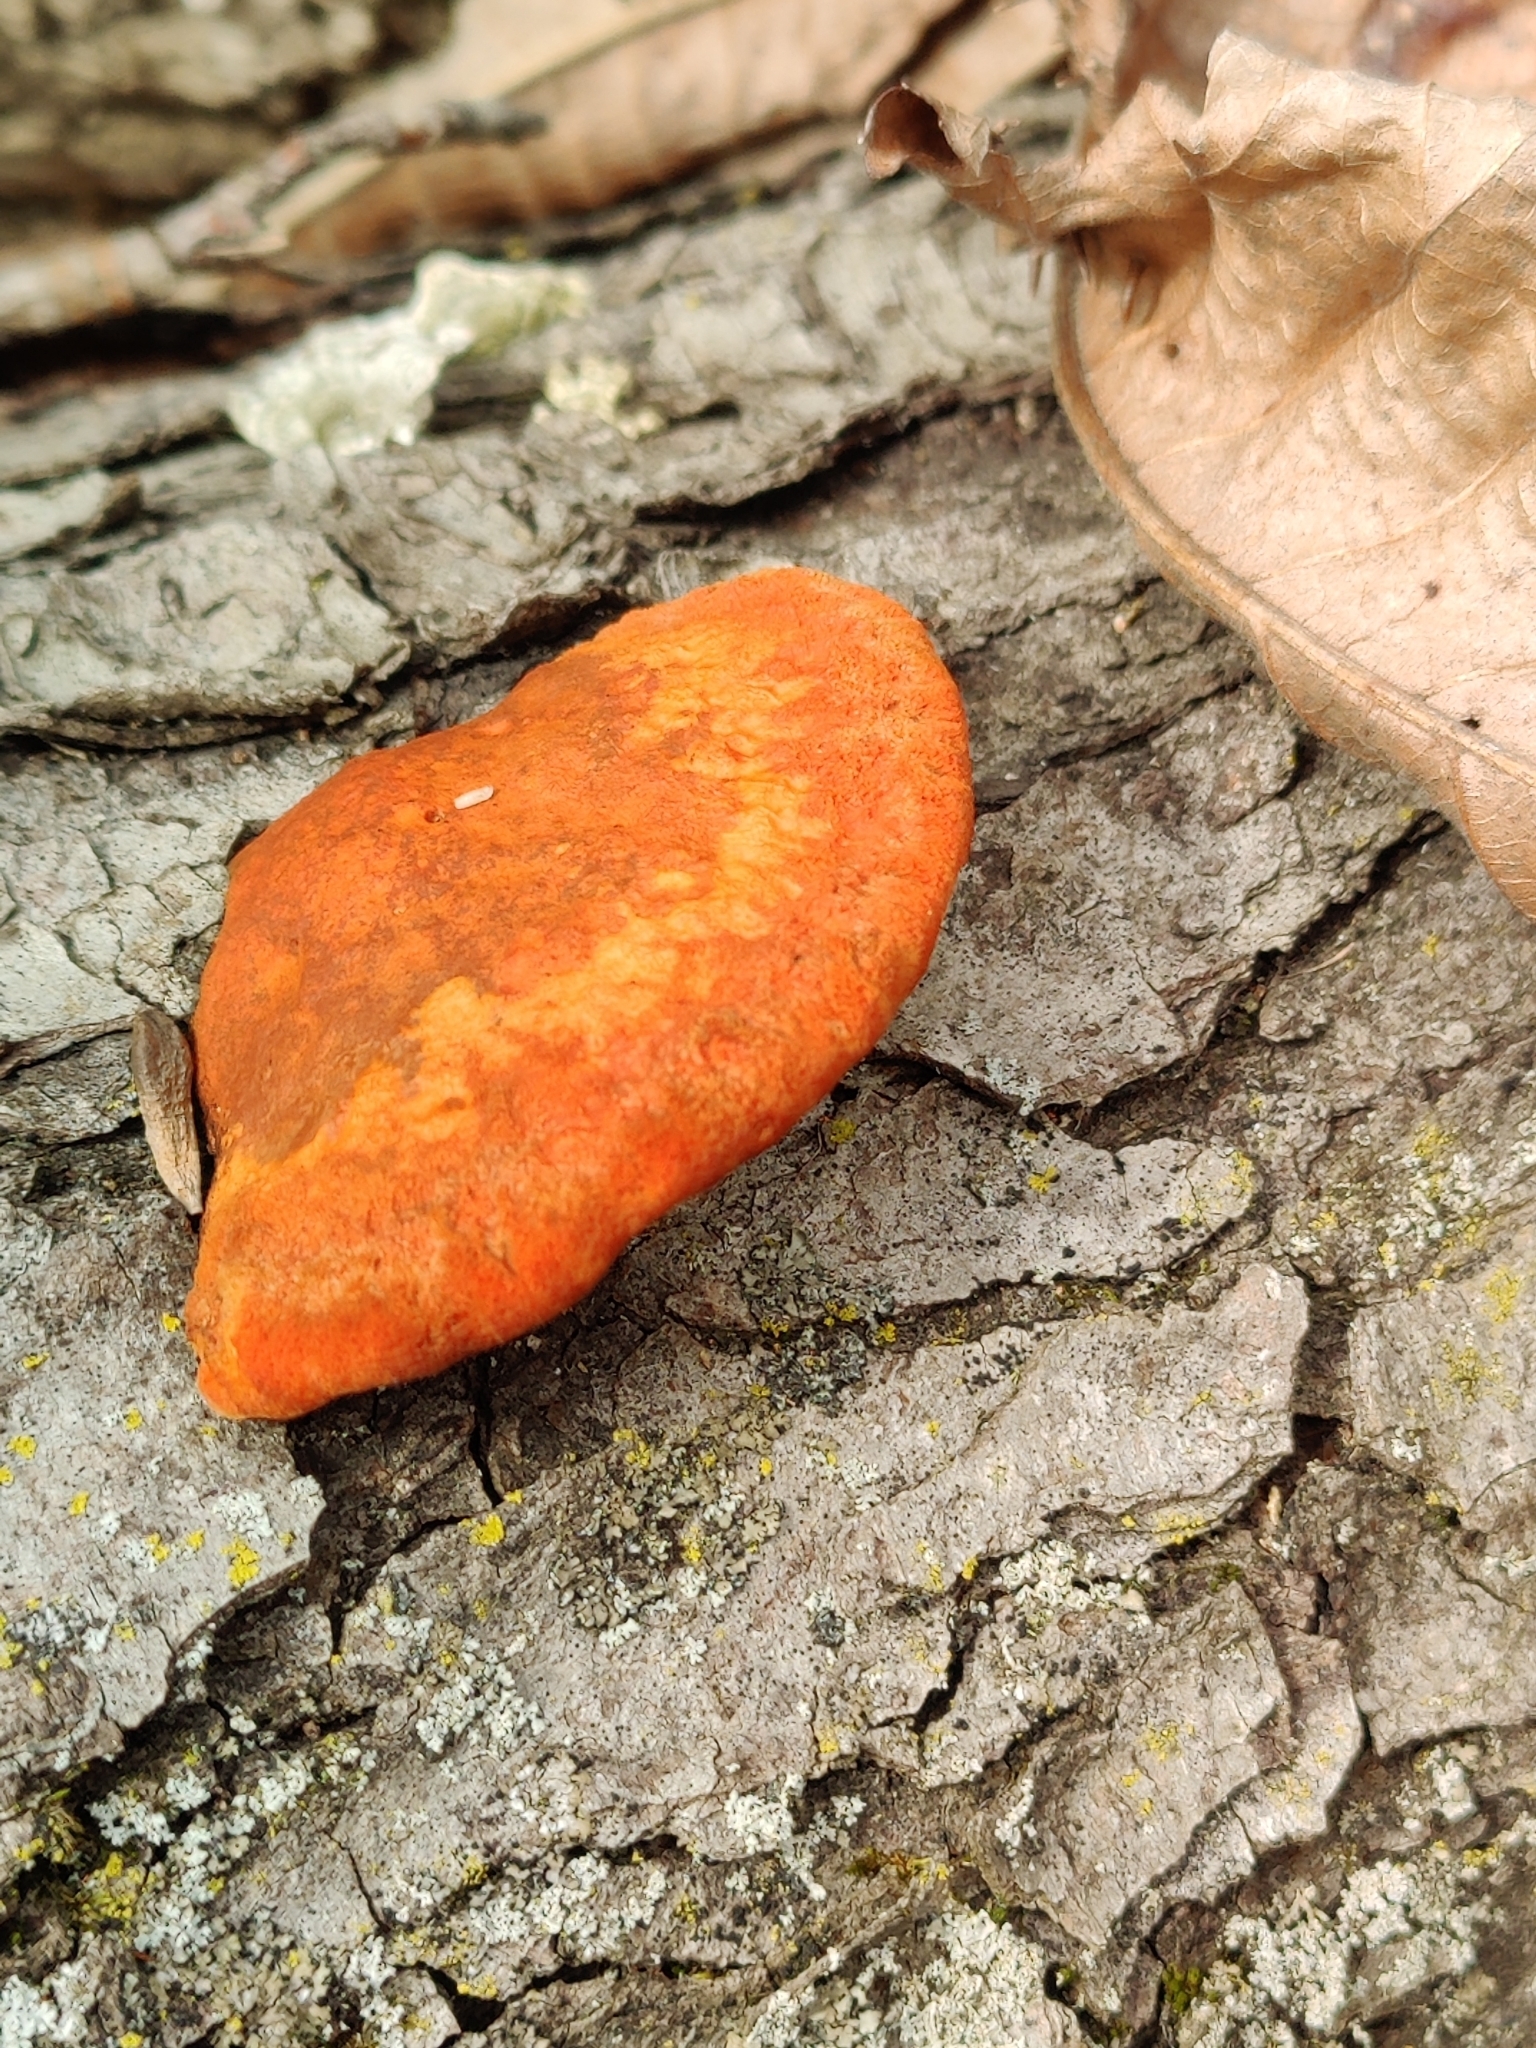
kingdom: Fungi
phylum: Basidiomycota
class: Agaricomycetes
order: Polyporales
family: Polyporaceae
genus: Trametes
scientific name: Trametes cinnabarina
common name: Northern cinnabar polypore
